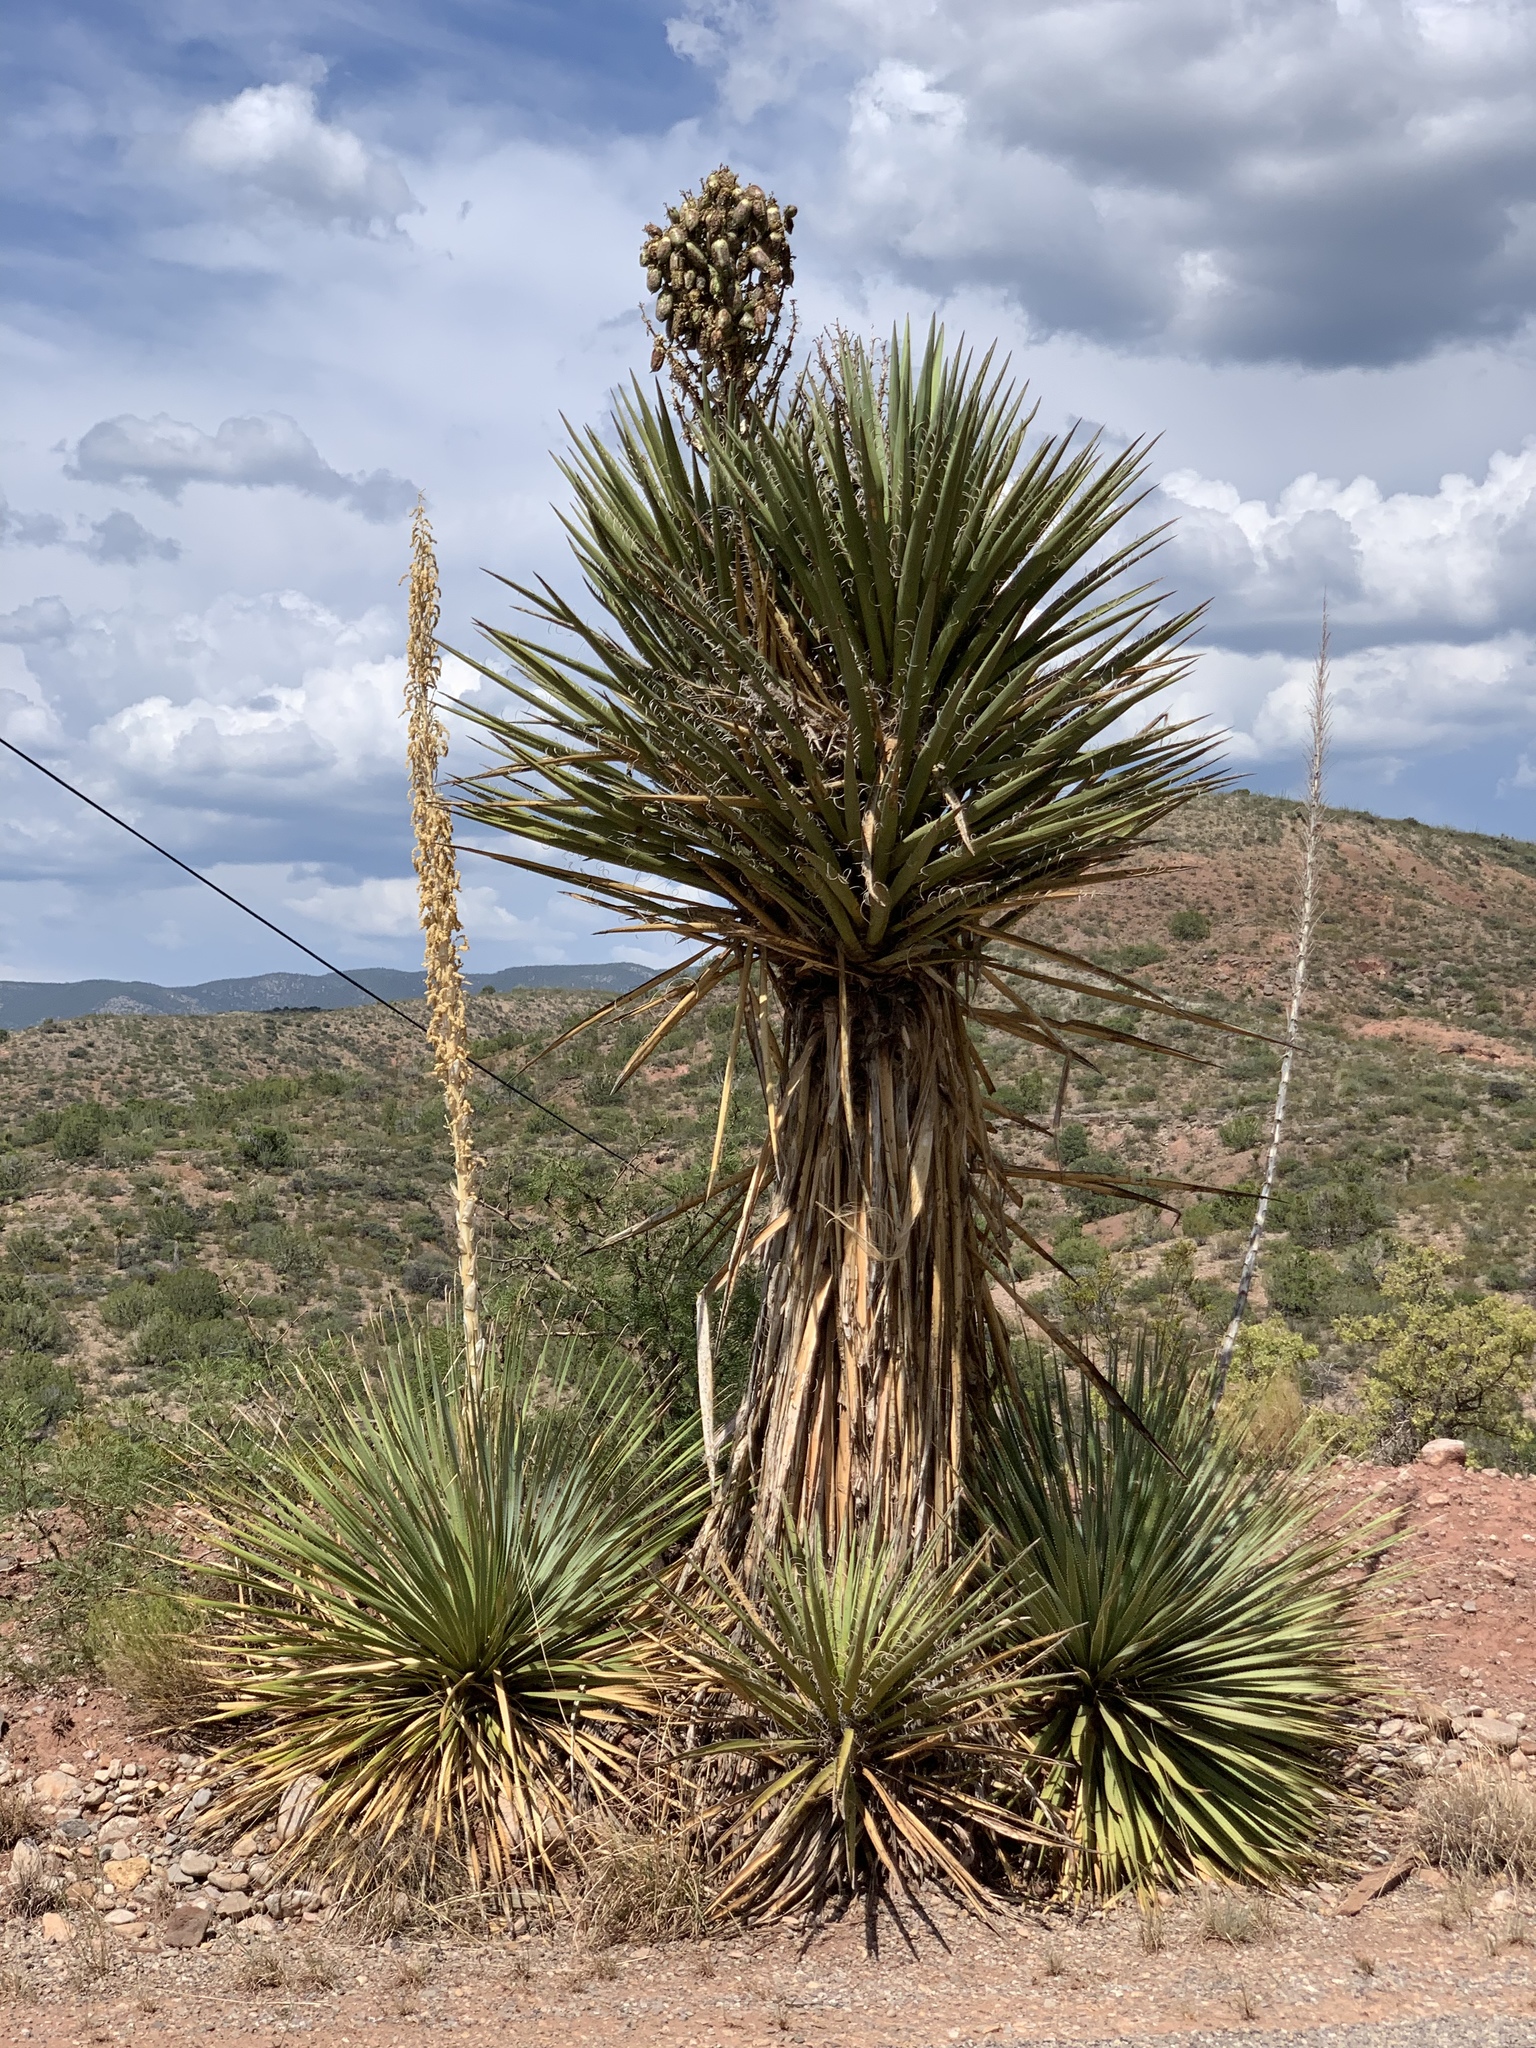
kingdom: Plantae
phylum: Tracheophyta
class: Liliopsida
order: Asparagales
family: Asparagaceae
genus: Yucca
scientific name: Yucca treculiana
